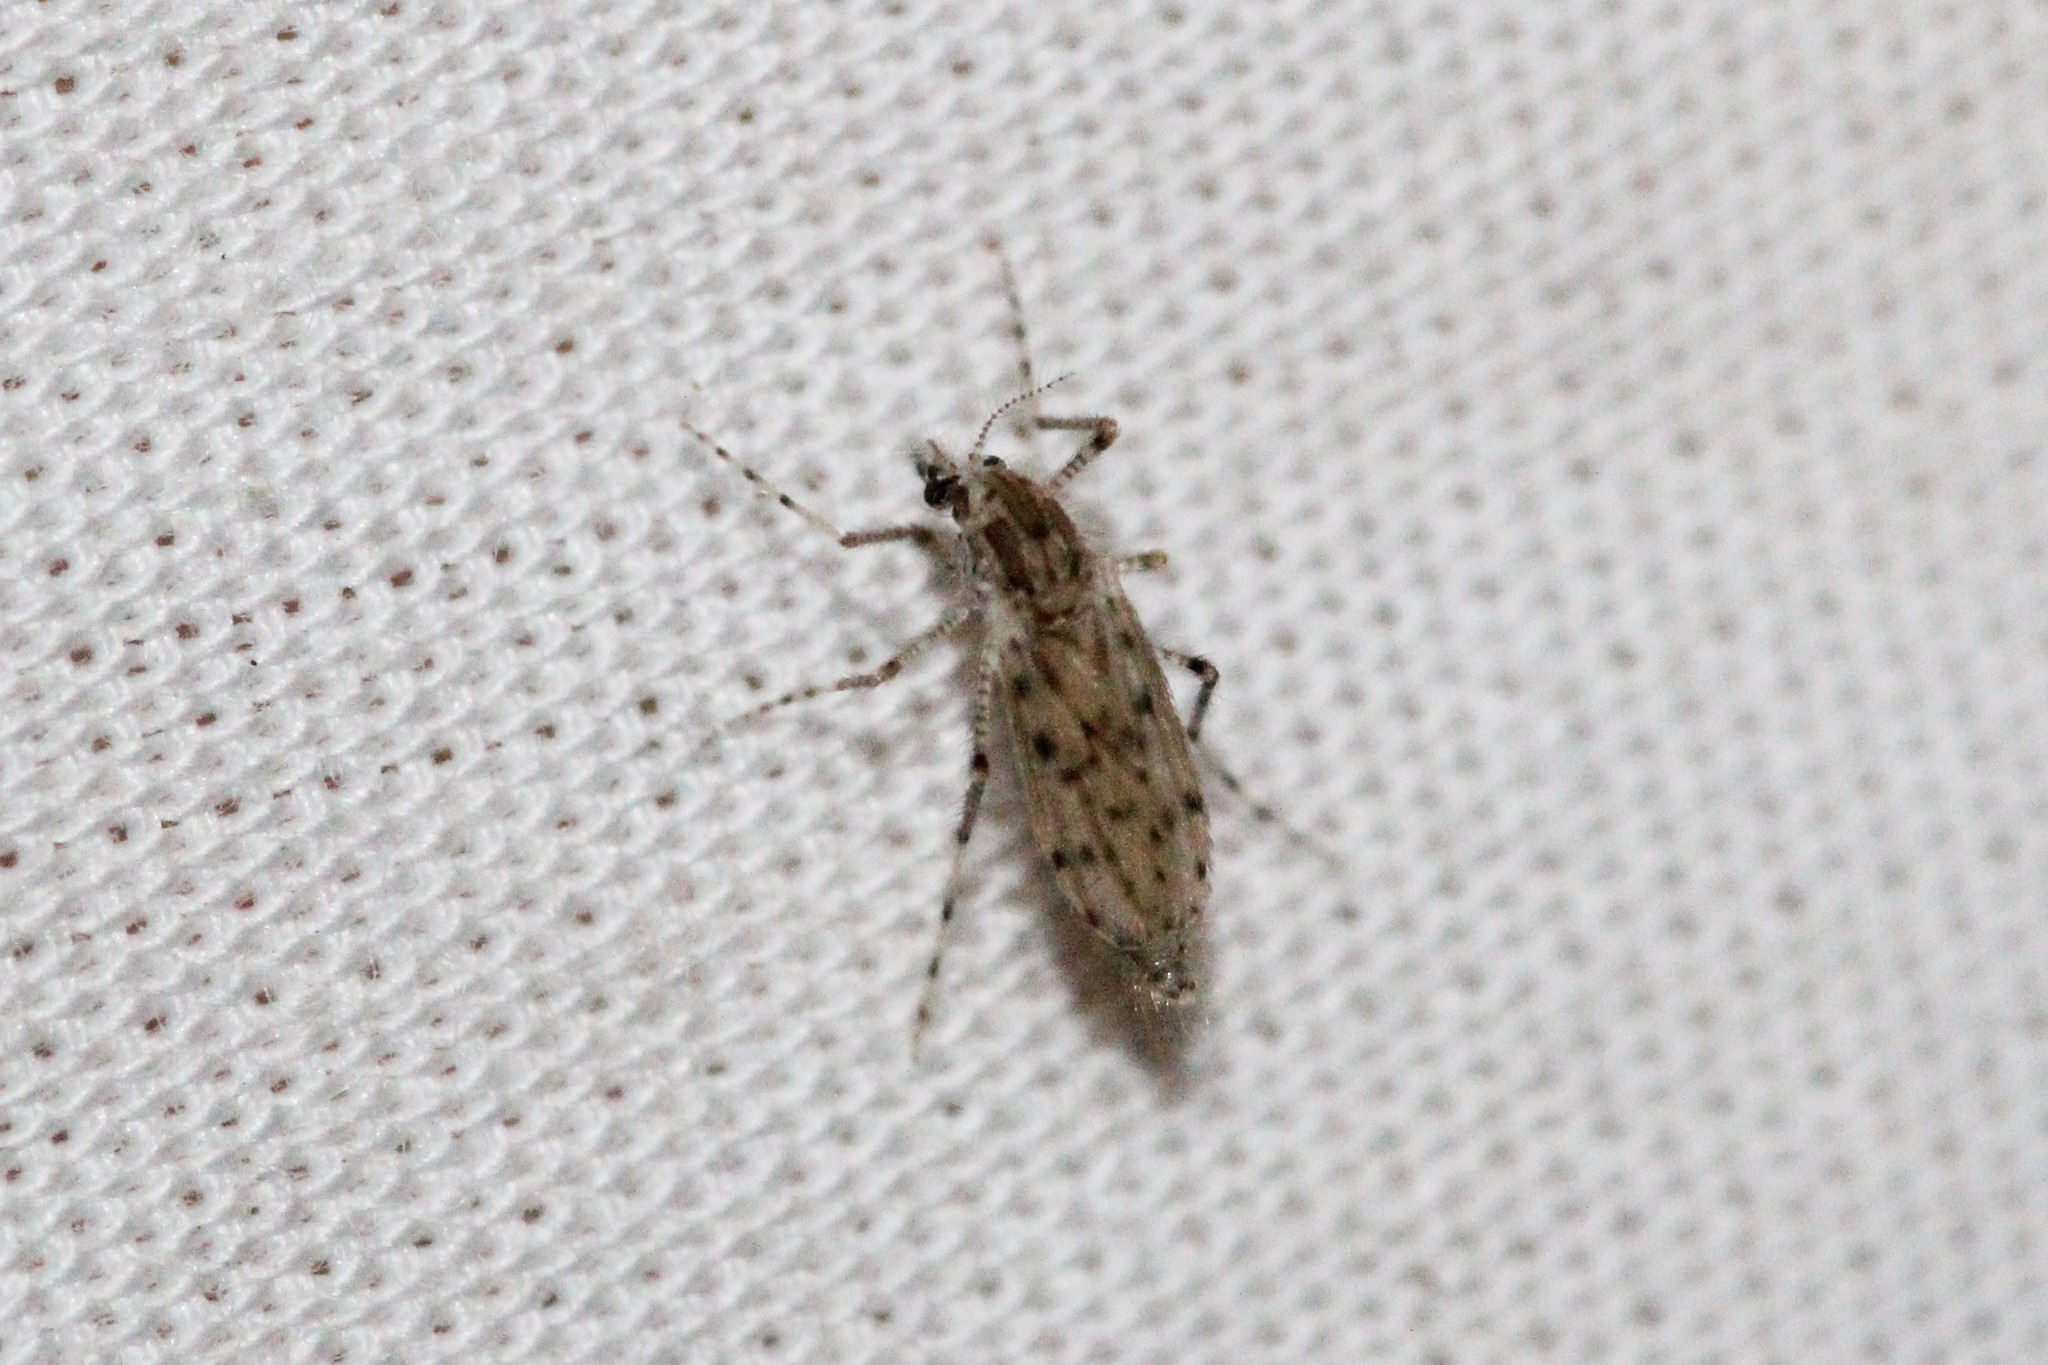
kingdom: Animalia
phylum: Arthropoda
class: Insecta
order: Diptera
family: Chaoboridae
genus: Chaoborus
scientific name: Chaoborus punctipennis
